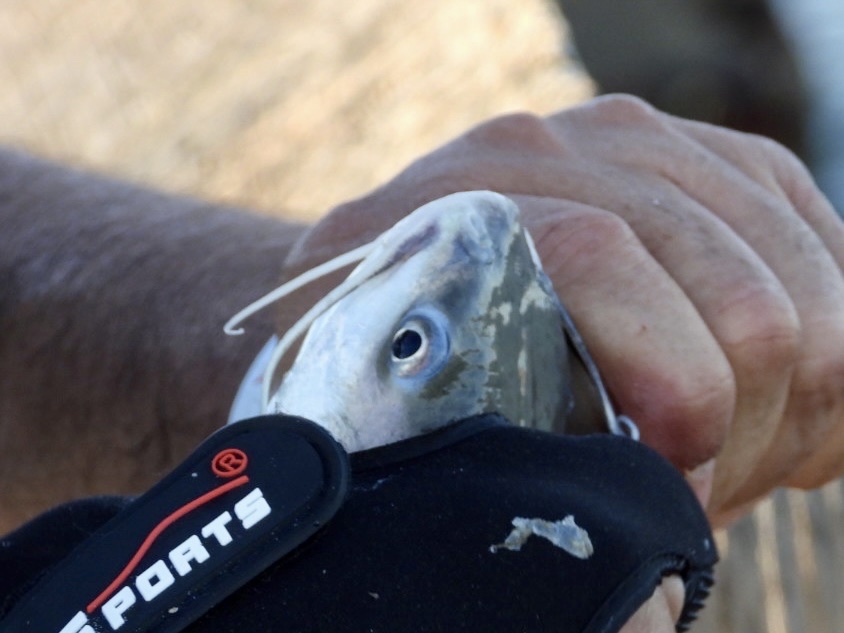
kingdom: Animalia
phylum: Chordata
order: Siluriformes
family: Ariidae
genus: Ariopsis
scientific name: Ariopsis felis
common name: Hardhead catfish
